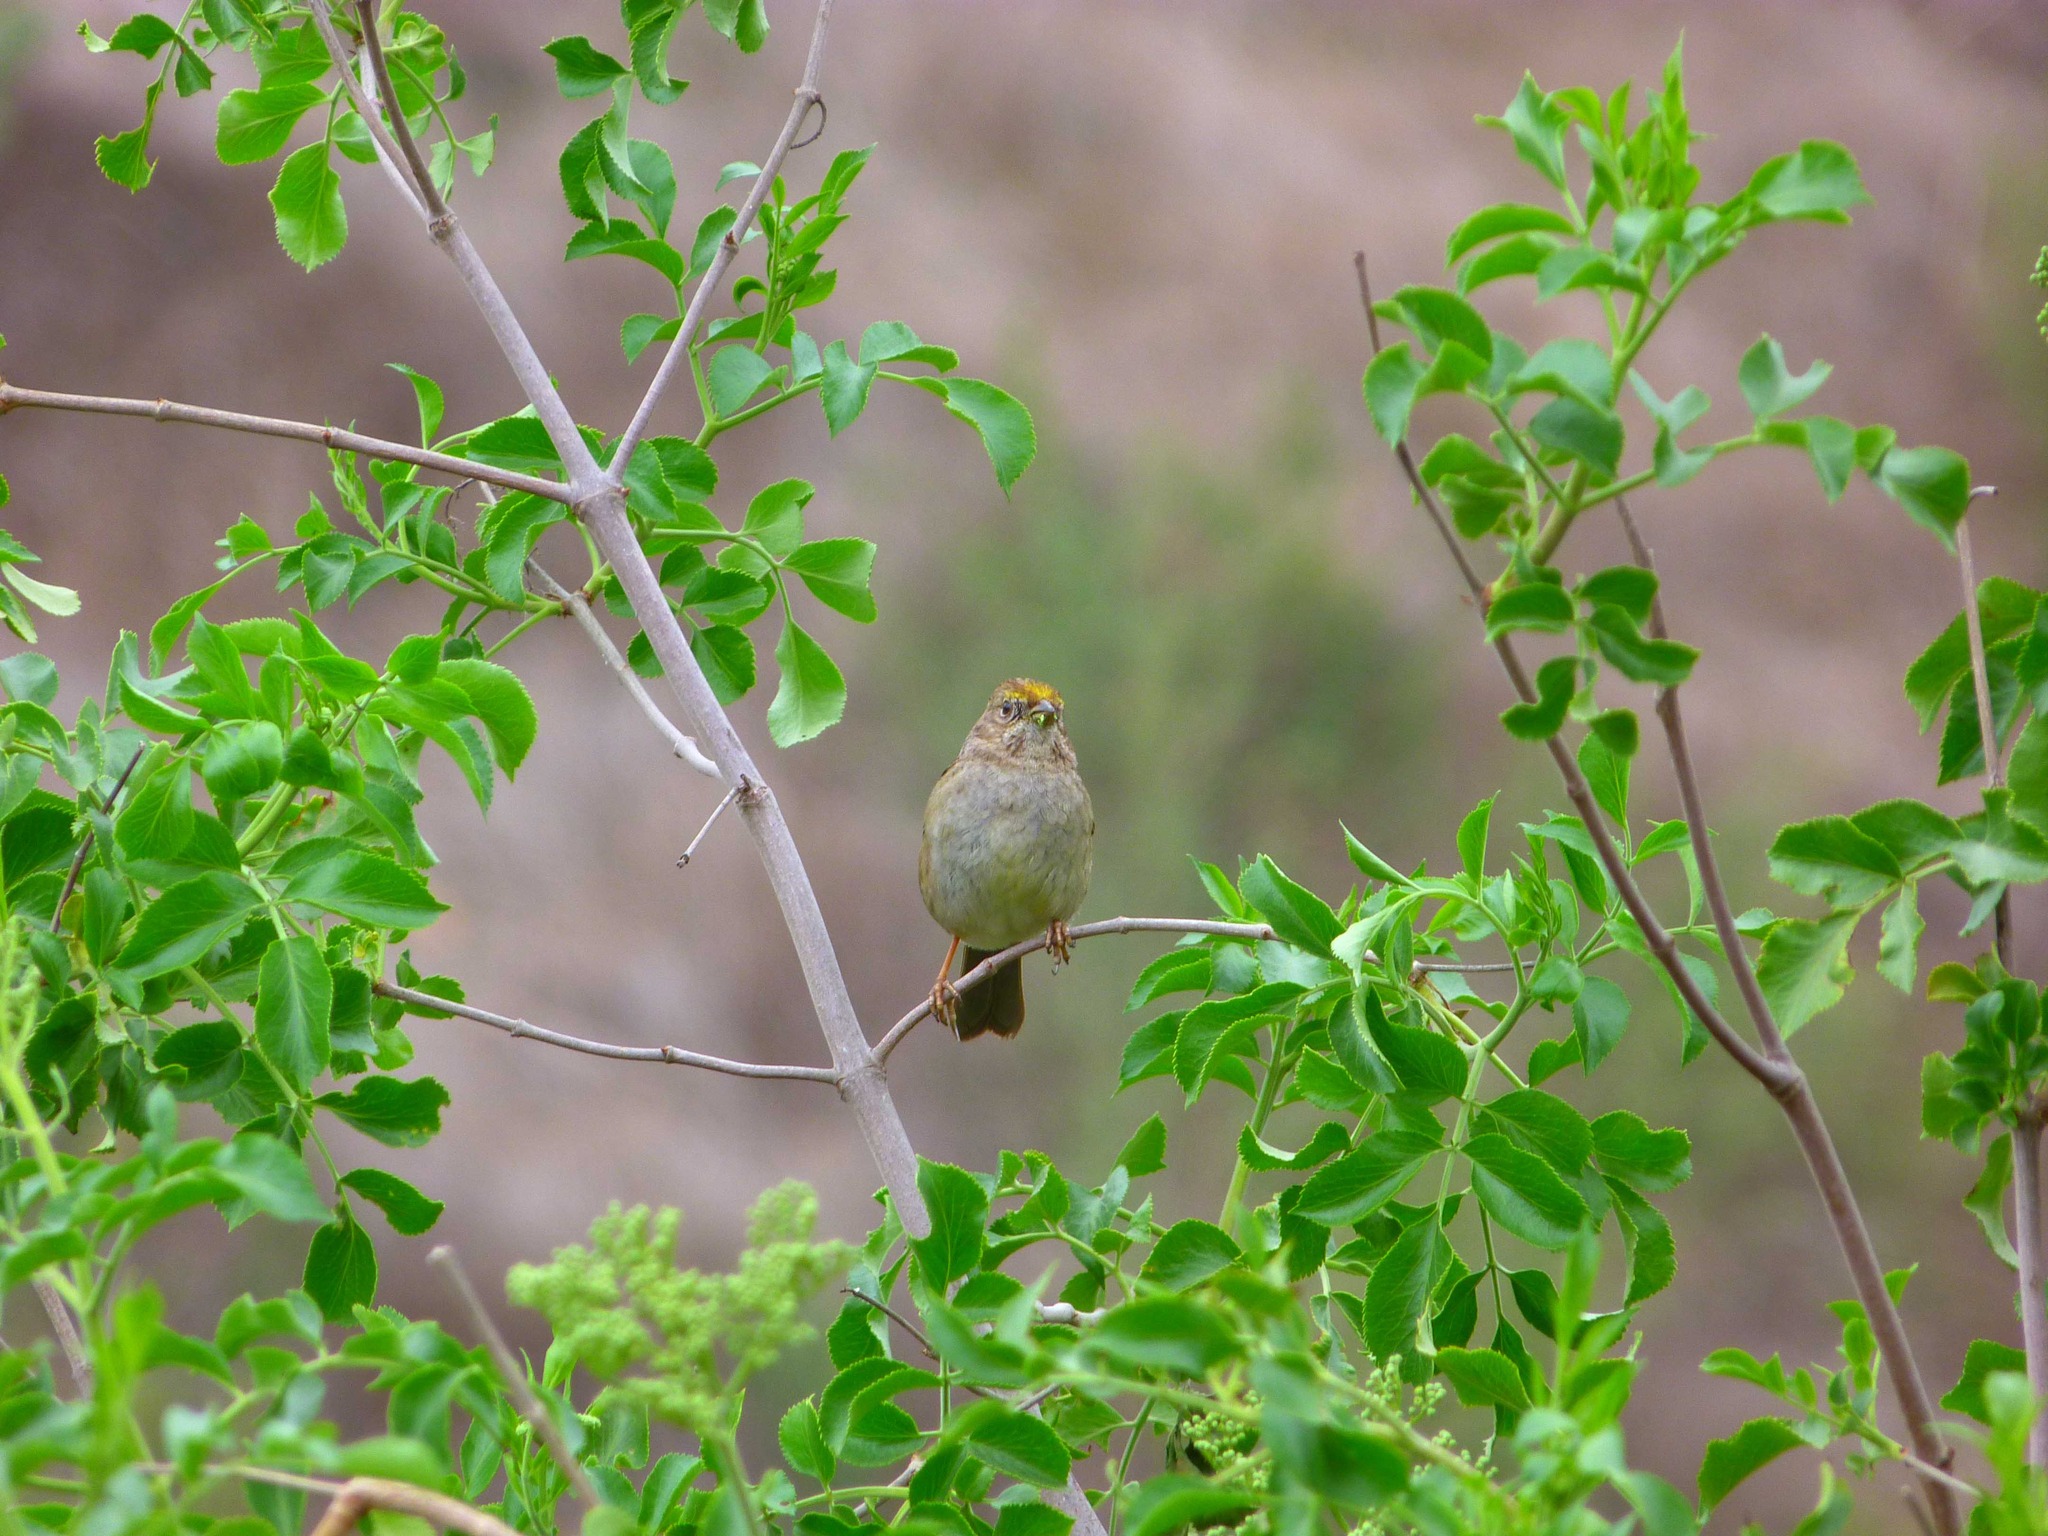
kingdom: Animalia
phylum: Chordata
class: Aves
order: Passeriformes
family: Passerellidae
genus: Zonotrichia
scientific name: Zonotrichia atricapilla
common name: Golden-crowned sparrow
